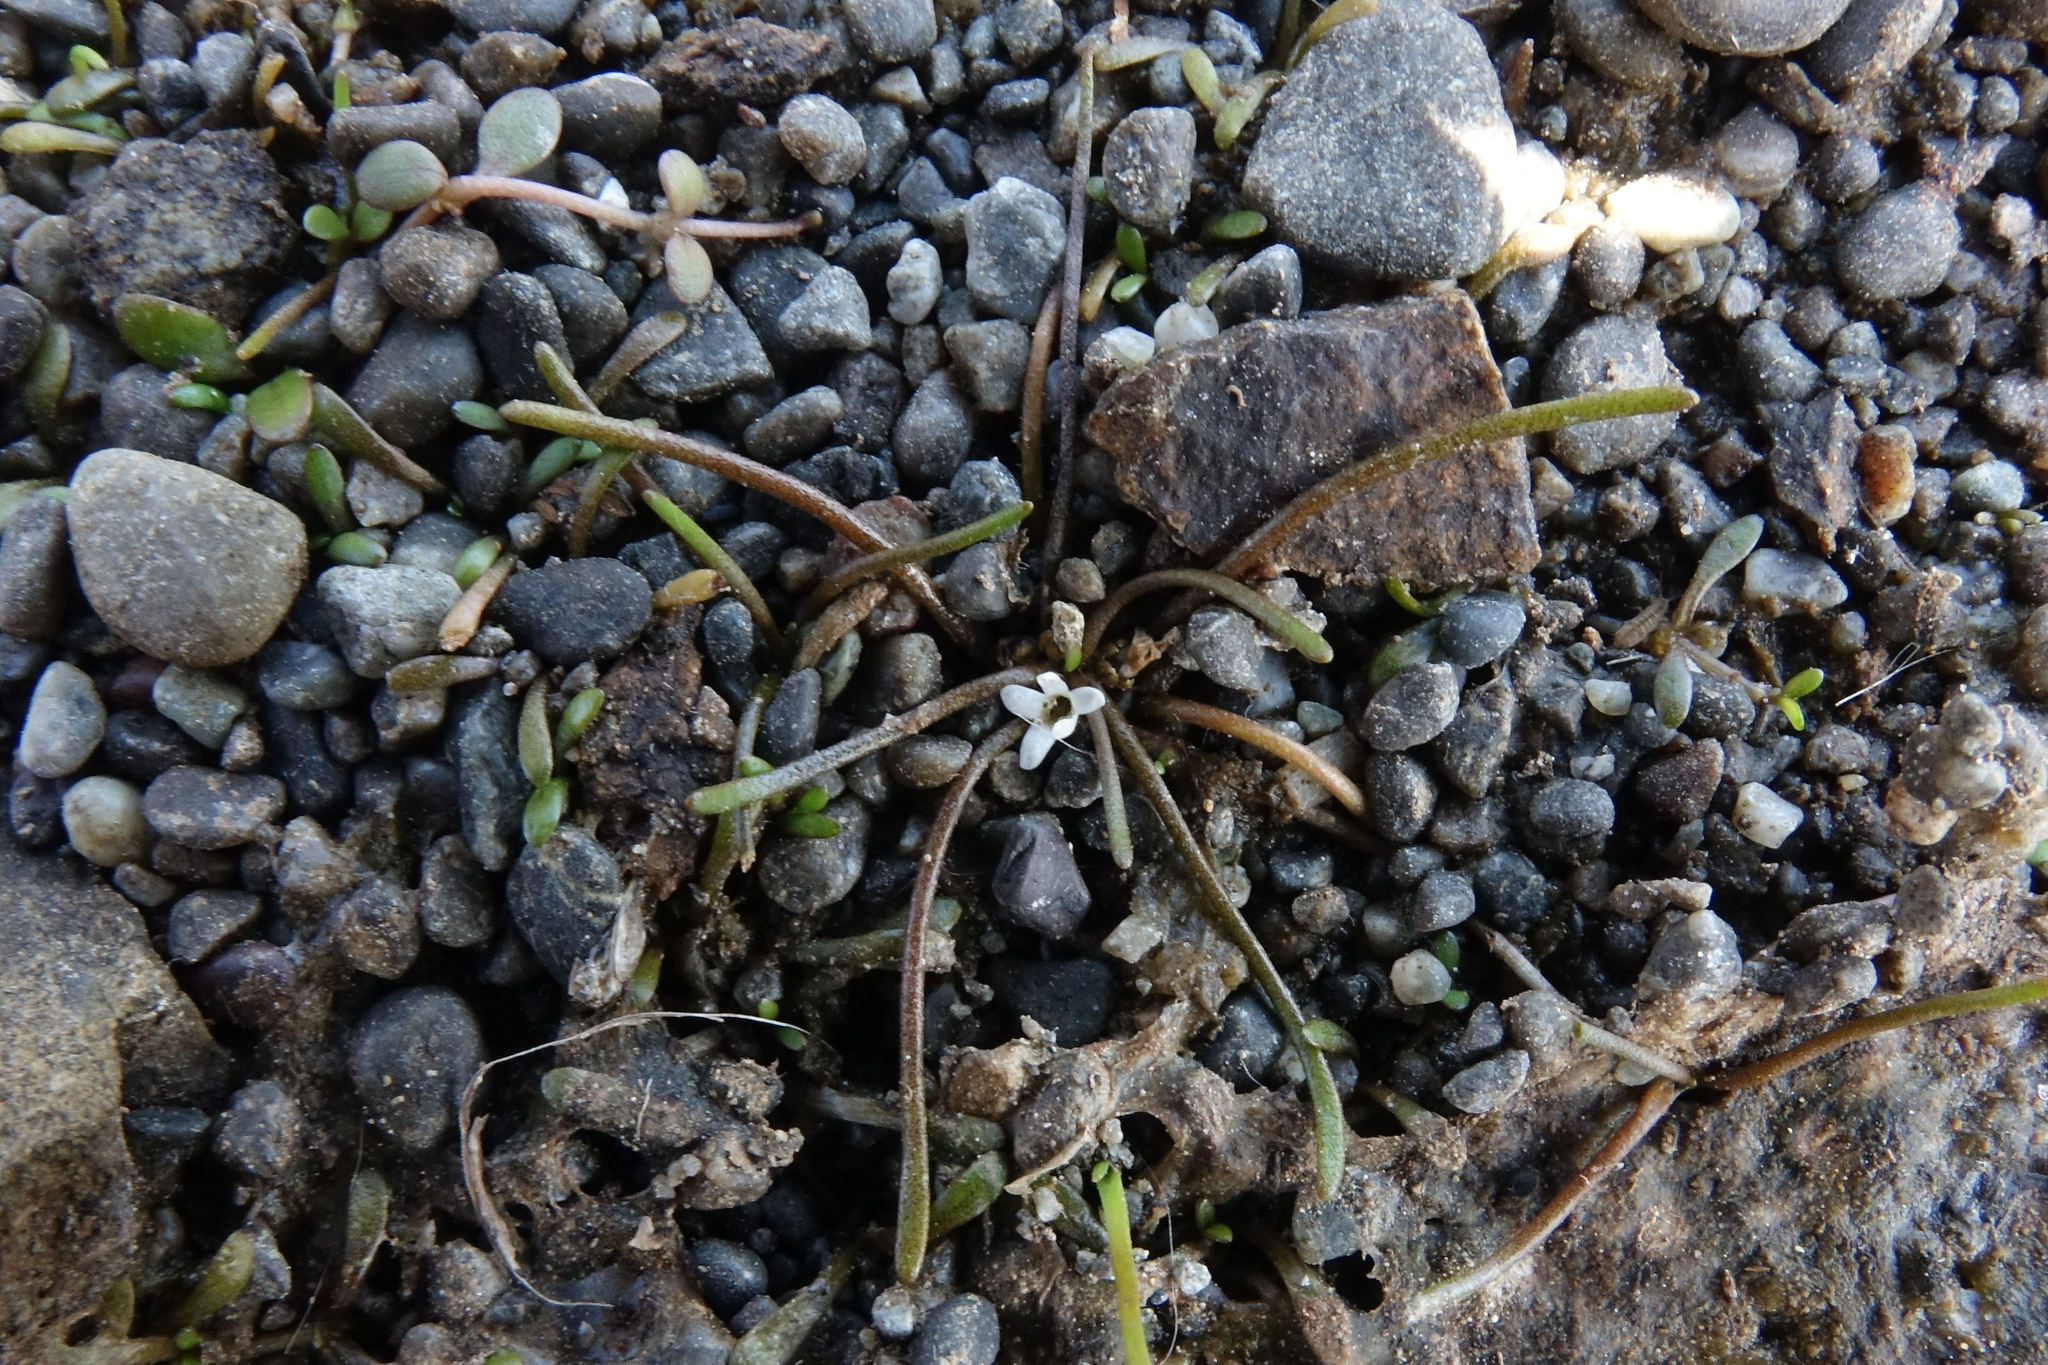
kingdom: Plantae
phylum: Tracheophyta
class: Magnoliopsida
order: Lamiales
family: Scrophulariaceae
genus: Limosella
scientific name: Limosella australis
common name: Welsh mudwort
